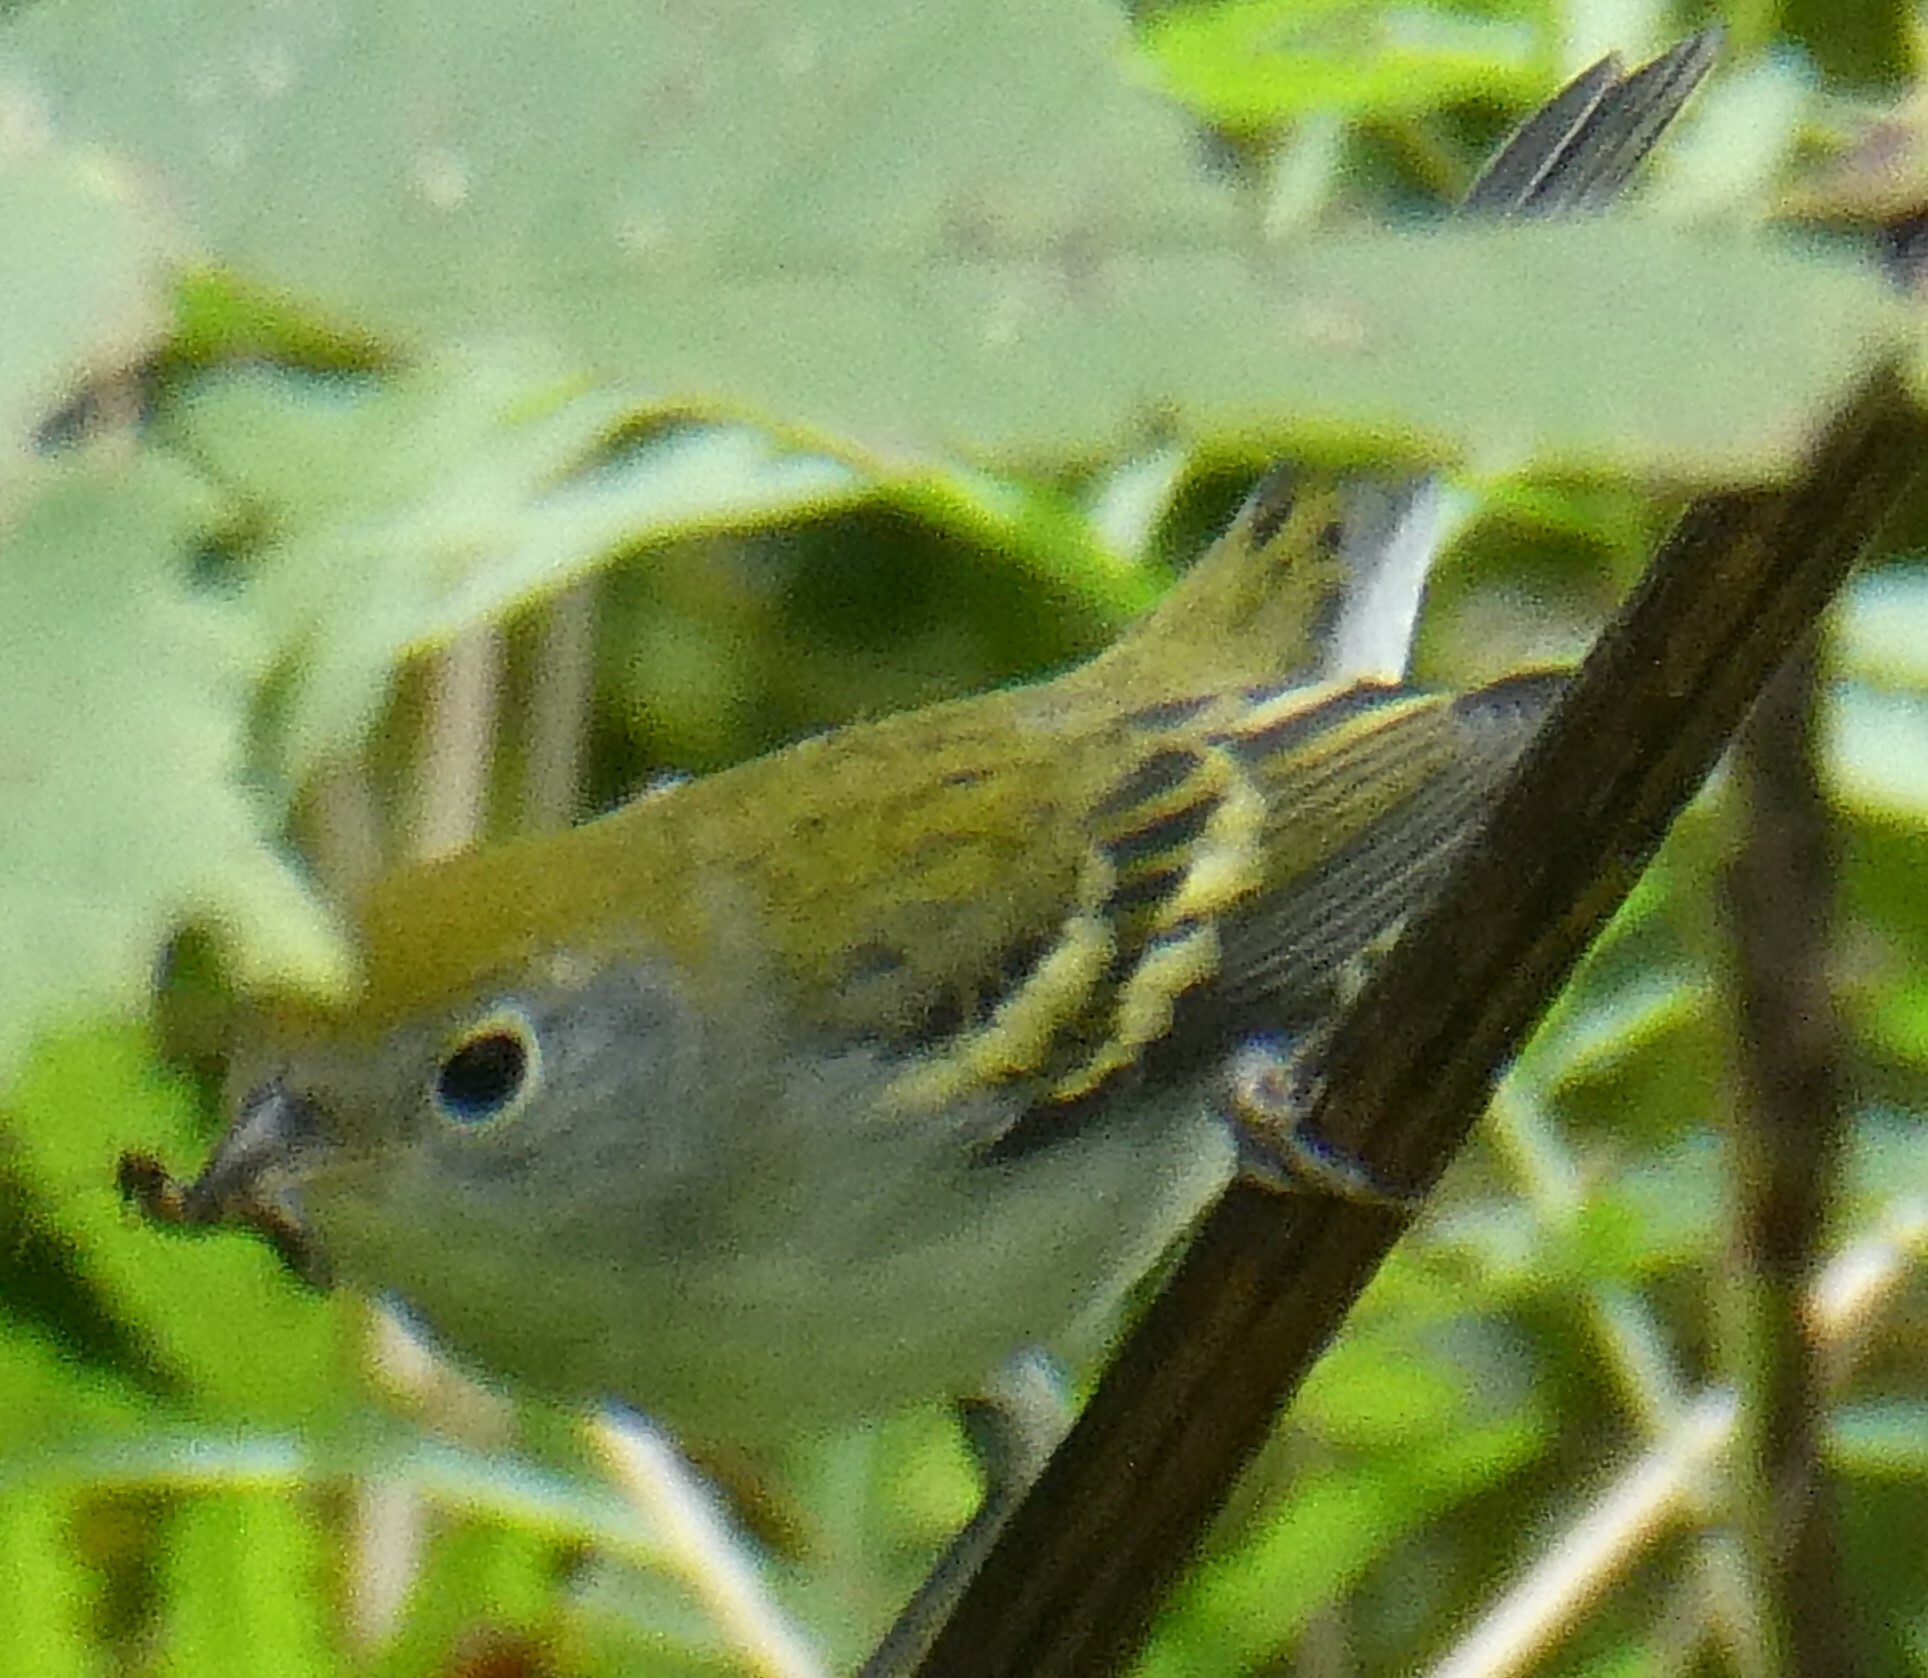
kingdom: Animalia
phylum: Chordata
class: Aves
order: Passeriformes
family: Parulidae
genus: Setophaga
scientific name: Setophaga pensylvanica
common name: Chestnut-sided warbler
